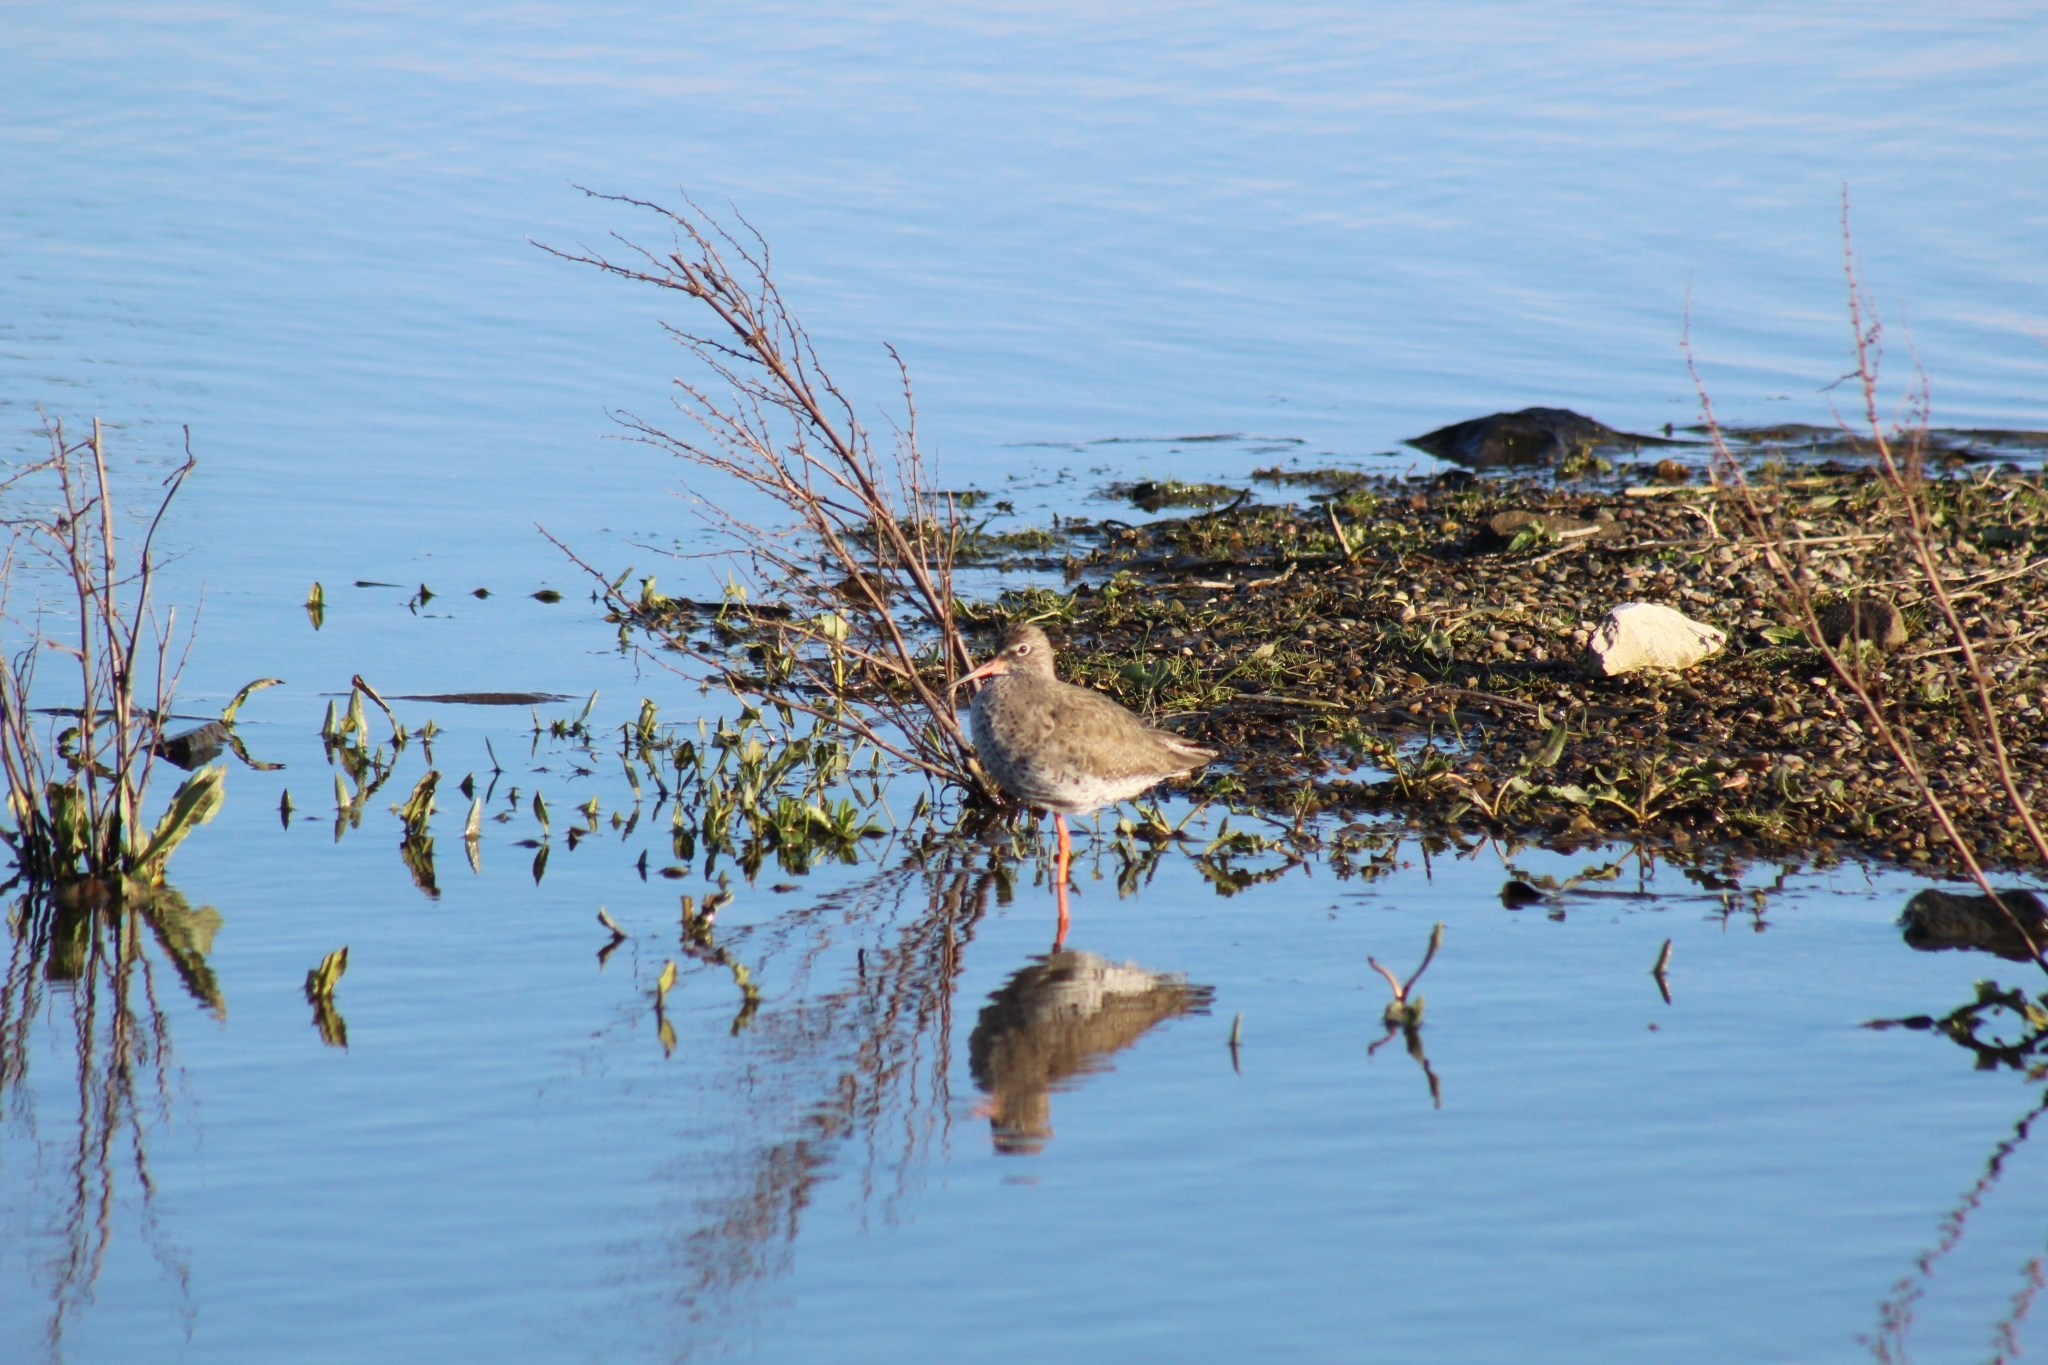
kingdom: Animalia
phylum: Chordata
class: Aves
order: Charadriiformes
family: Scolopacidae
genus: Tringa
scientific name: Tringa totanus
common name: Common redshank
